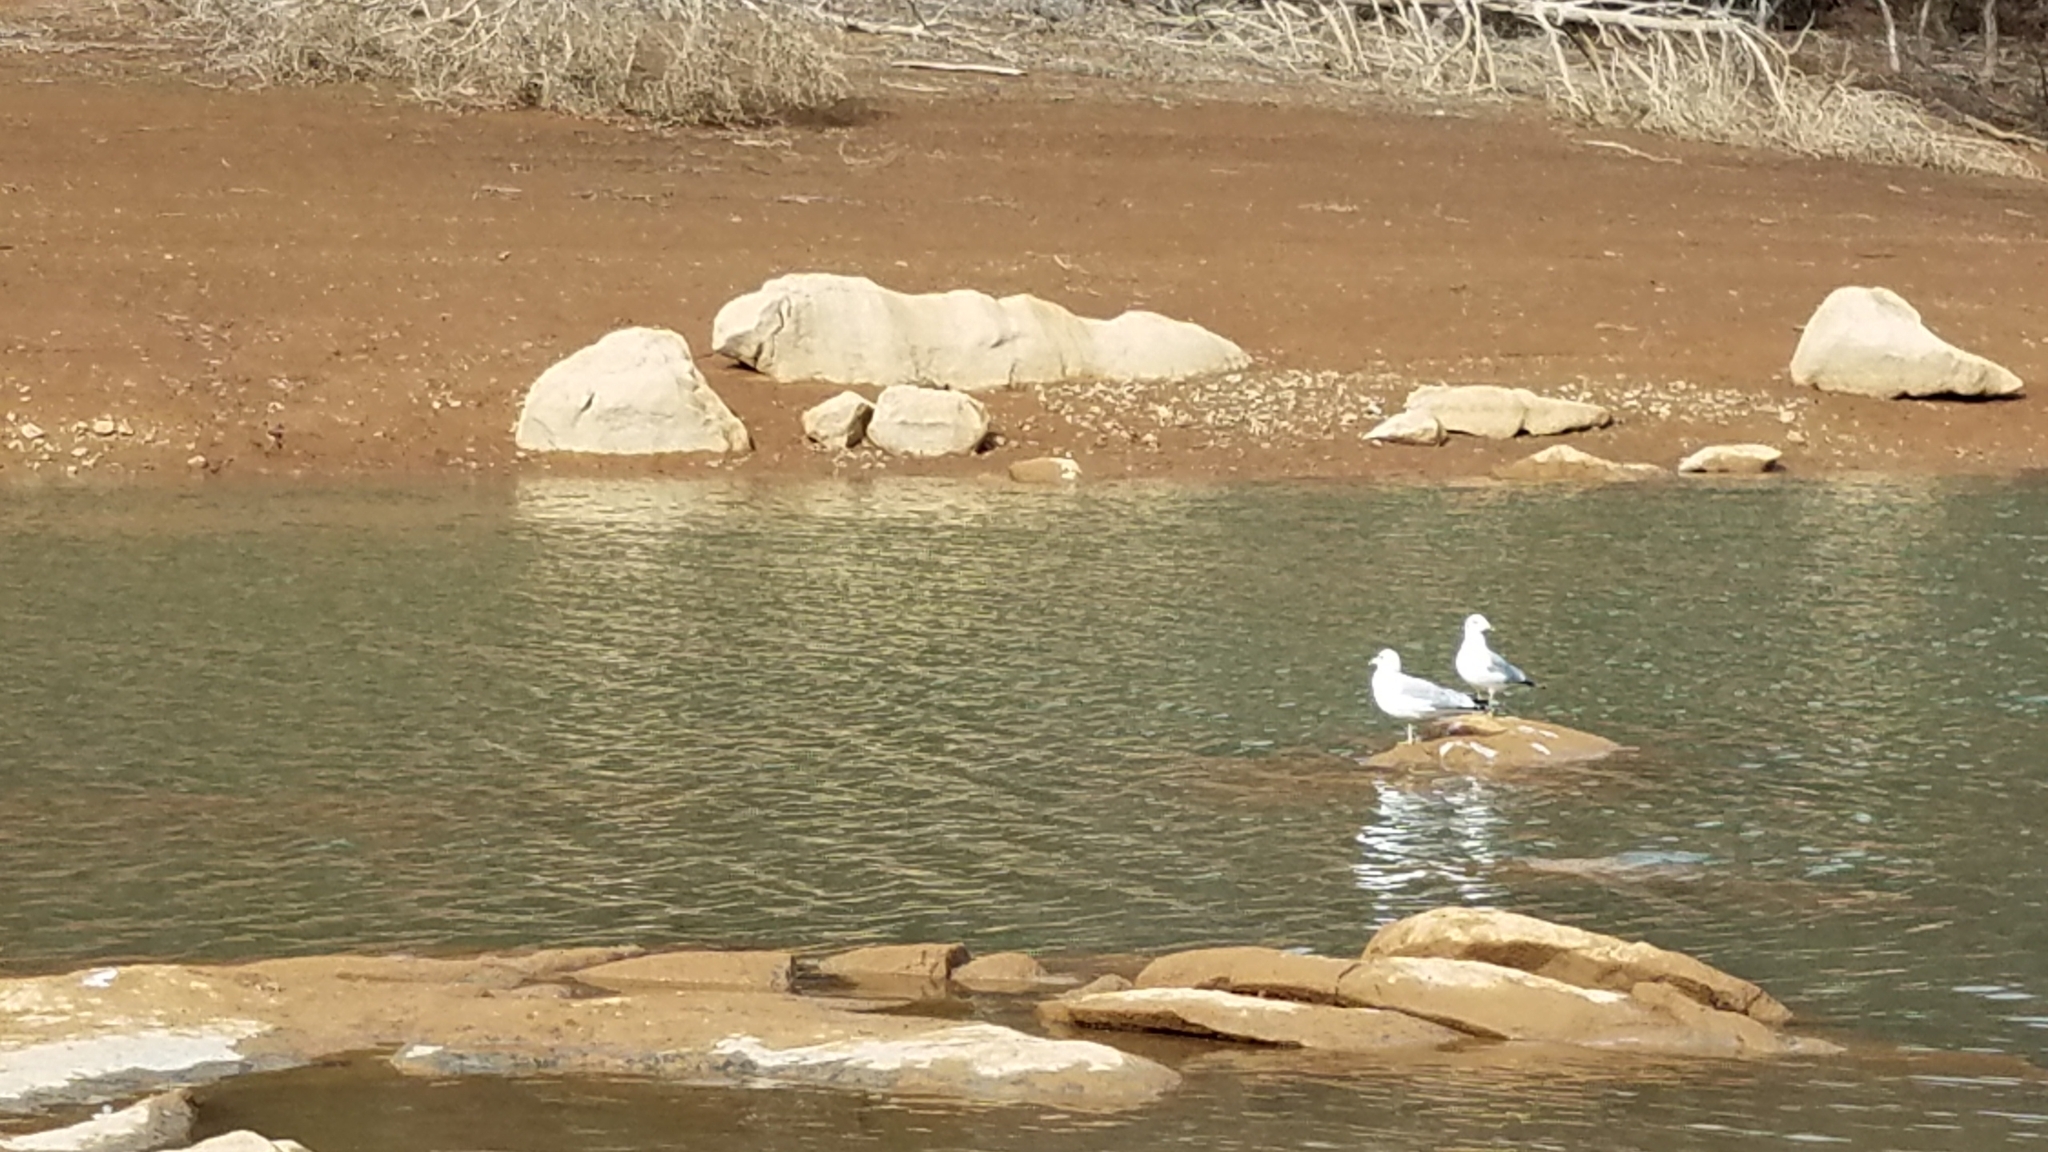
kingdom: Animalia
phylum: Chordata
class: Aves
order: Charadriiformes
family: Laridae
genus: Larus
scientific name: Larus delawarensis
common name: Ring-billed gull
